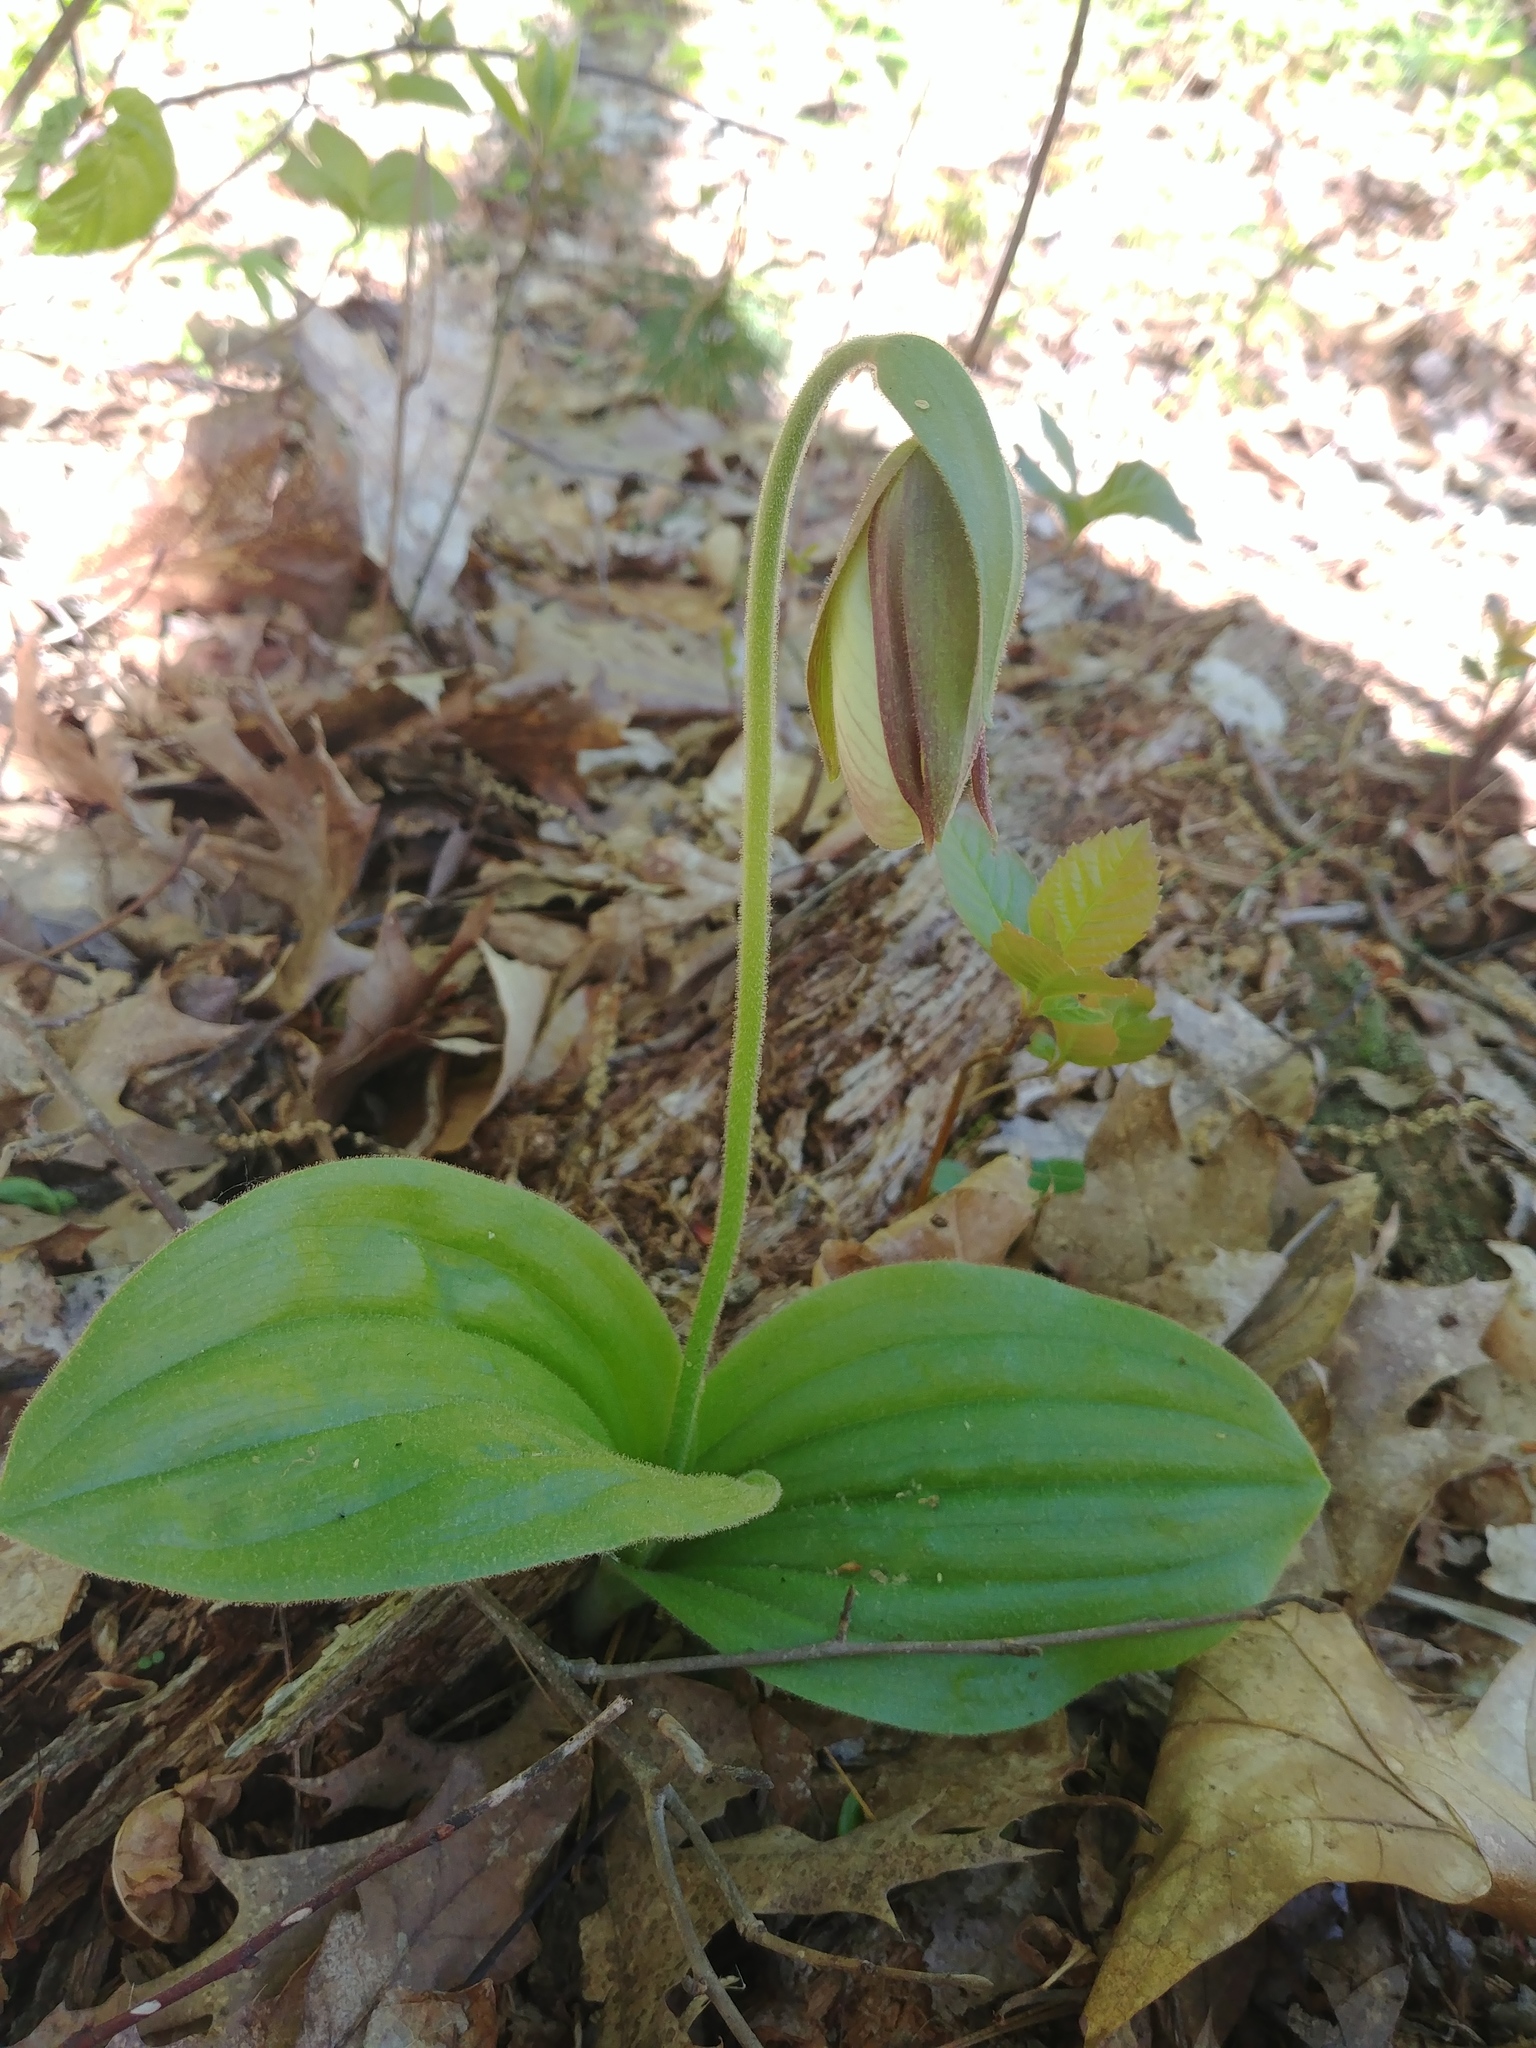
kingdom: Plantae
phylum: Tracheophyta
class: Liliopsida
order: Asparagales
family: Orchidaceae
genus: Cypripedium
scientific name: Cypripedium acaule
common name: Pink lady's-slipper
